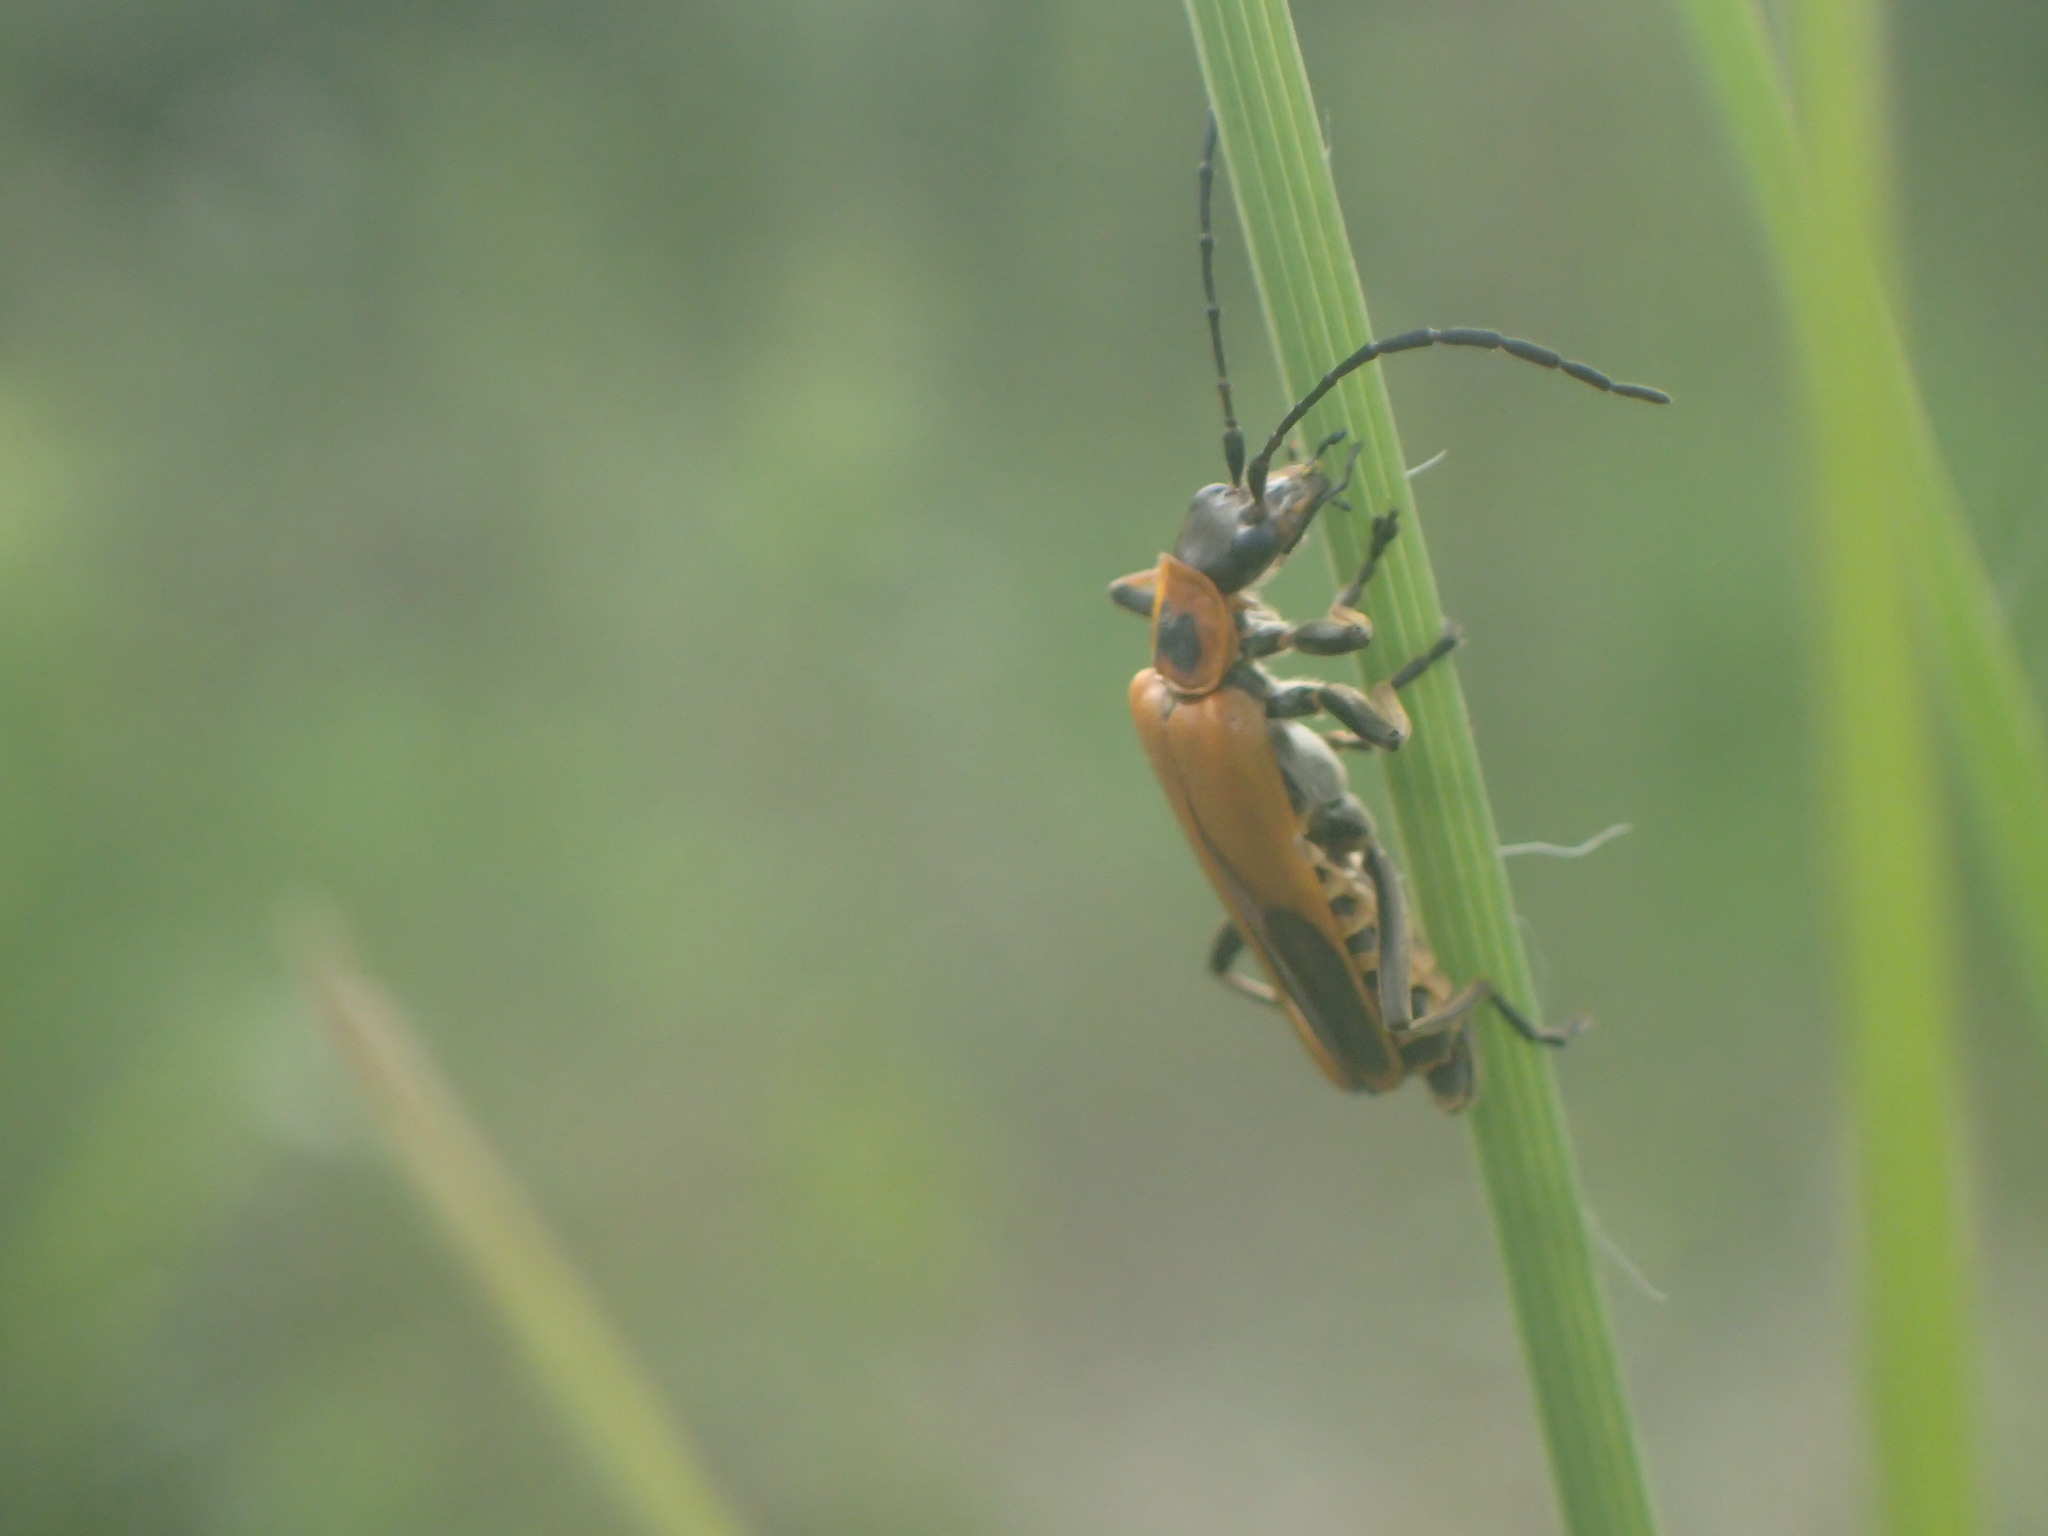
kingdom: Animalia
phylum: Arthropoda
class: Insecta
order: Coleoptera
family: Cantharidae
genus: Chauliognathus
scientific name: Chauliognathus pensylvanicus
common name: Goldenrod soldier beetle
